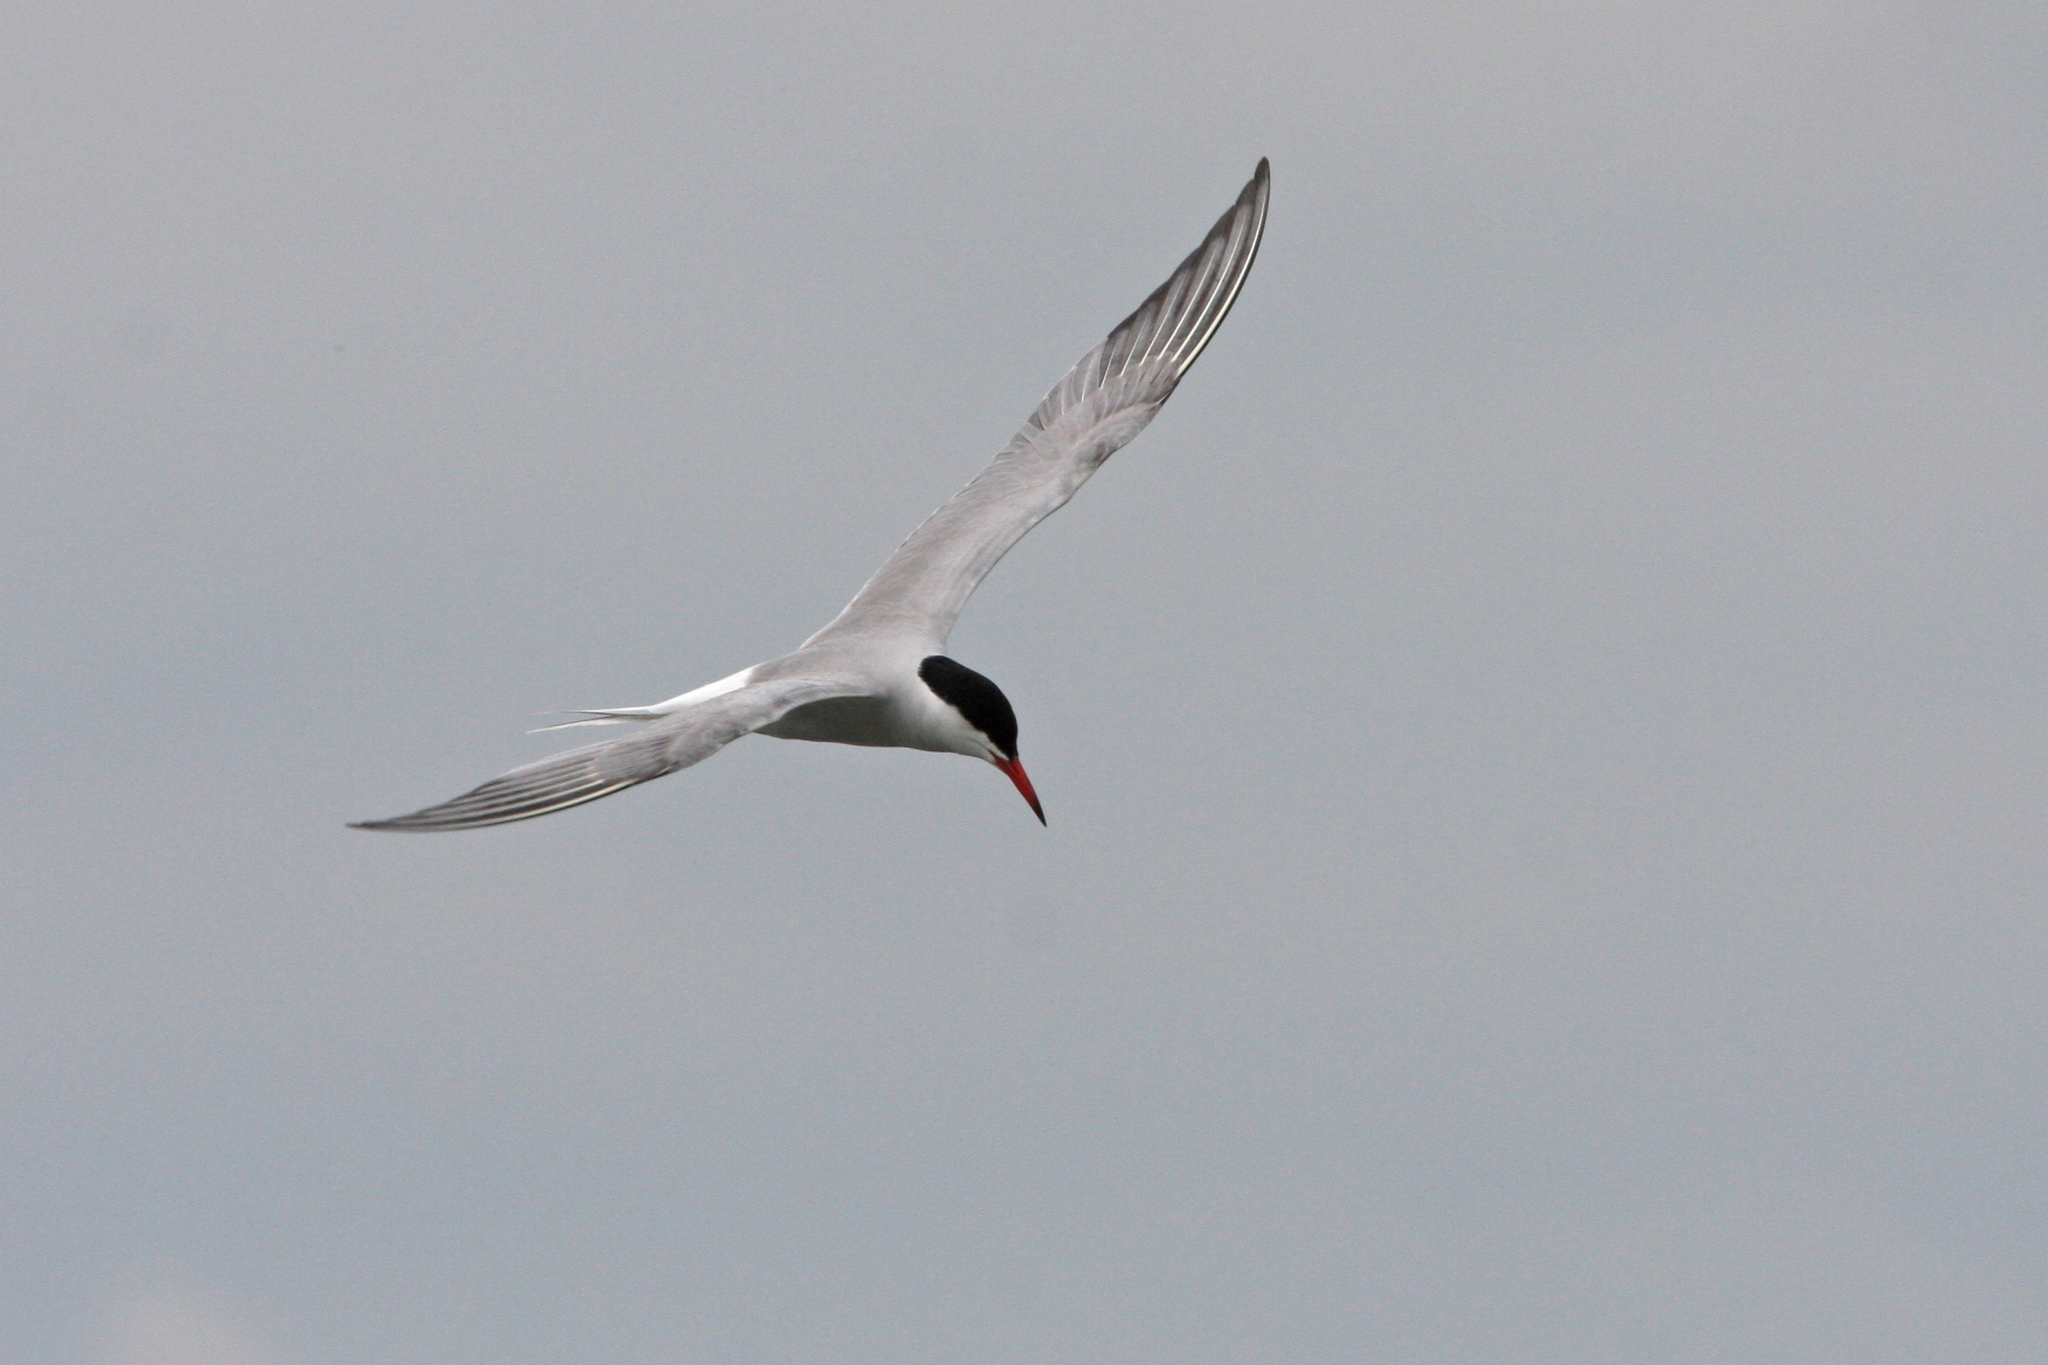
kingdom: Animalia
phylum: Chordata
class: Aves
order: Charadriiformes
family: Laridae
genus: Sterna
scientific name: Sterna hirundo
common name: Common tern
